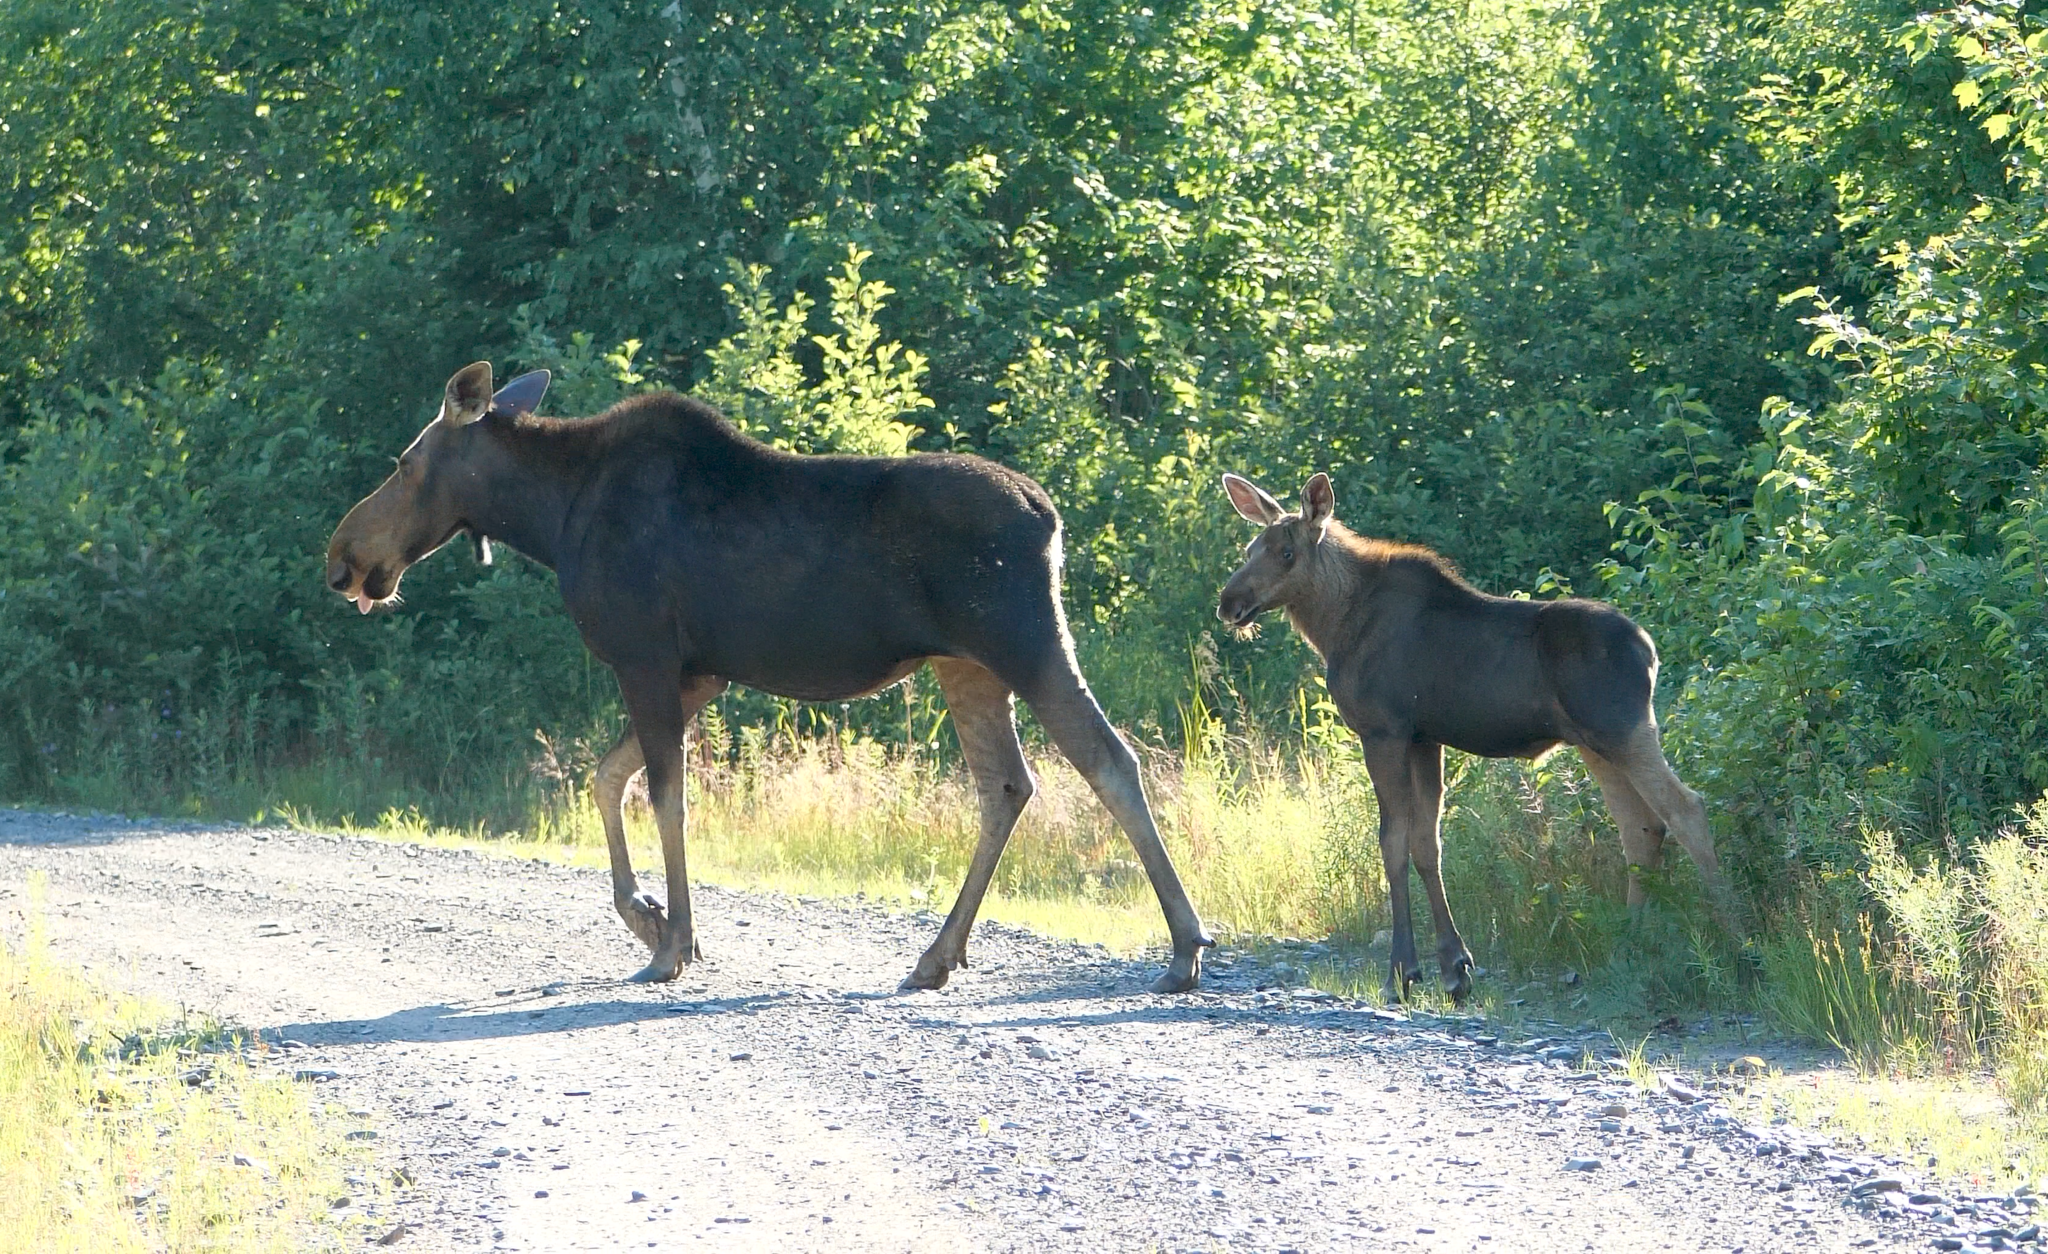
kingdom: Animalia
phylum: Chordata
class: Mammalia
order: Artiodactyla
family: Cervidae
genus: Alces
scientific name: Alces alces
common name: Moose
